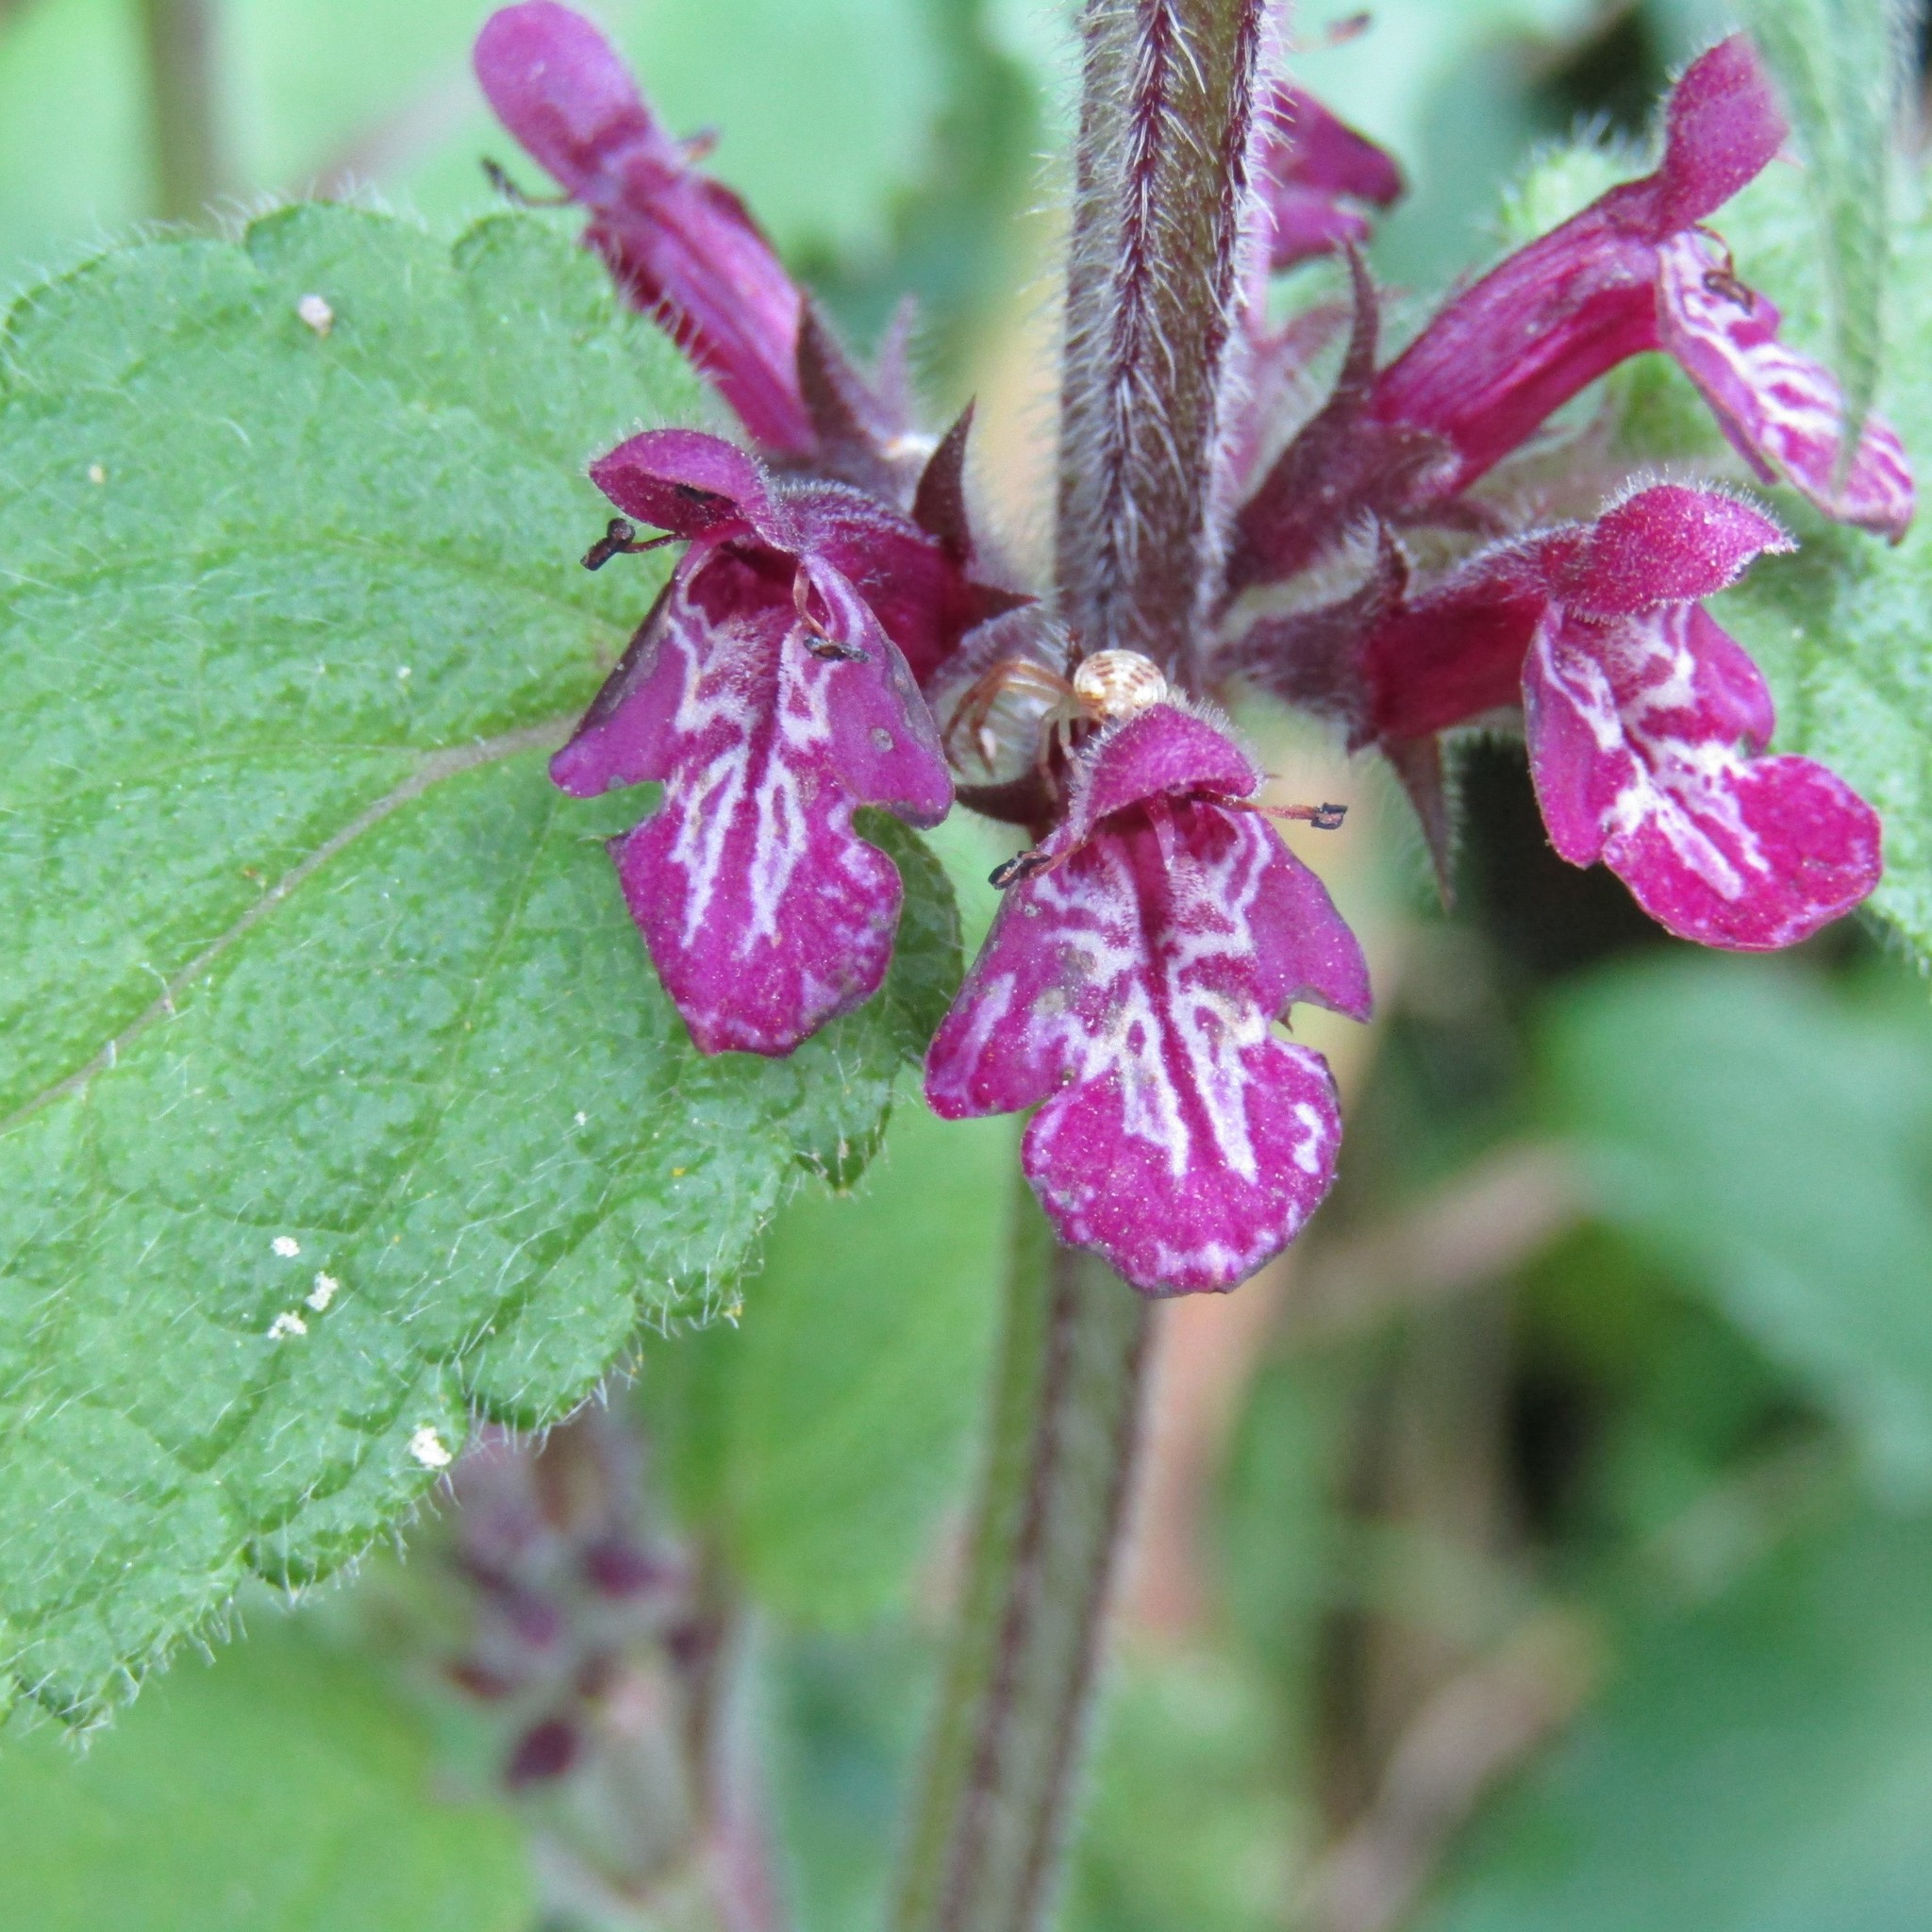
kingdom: Plantae
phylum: Tracheophyta
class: Magnoliopsida
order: Lamiales
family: Lamiaceae
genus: Stachys
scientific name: Stachys sylvatica
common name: Hedge woundwort
